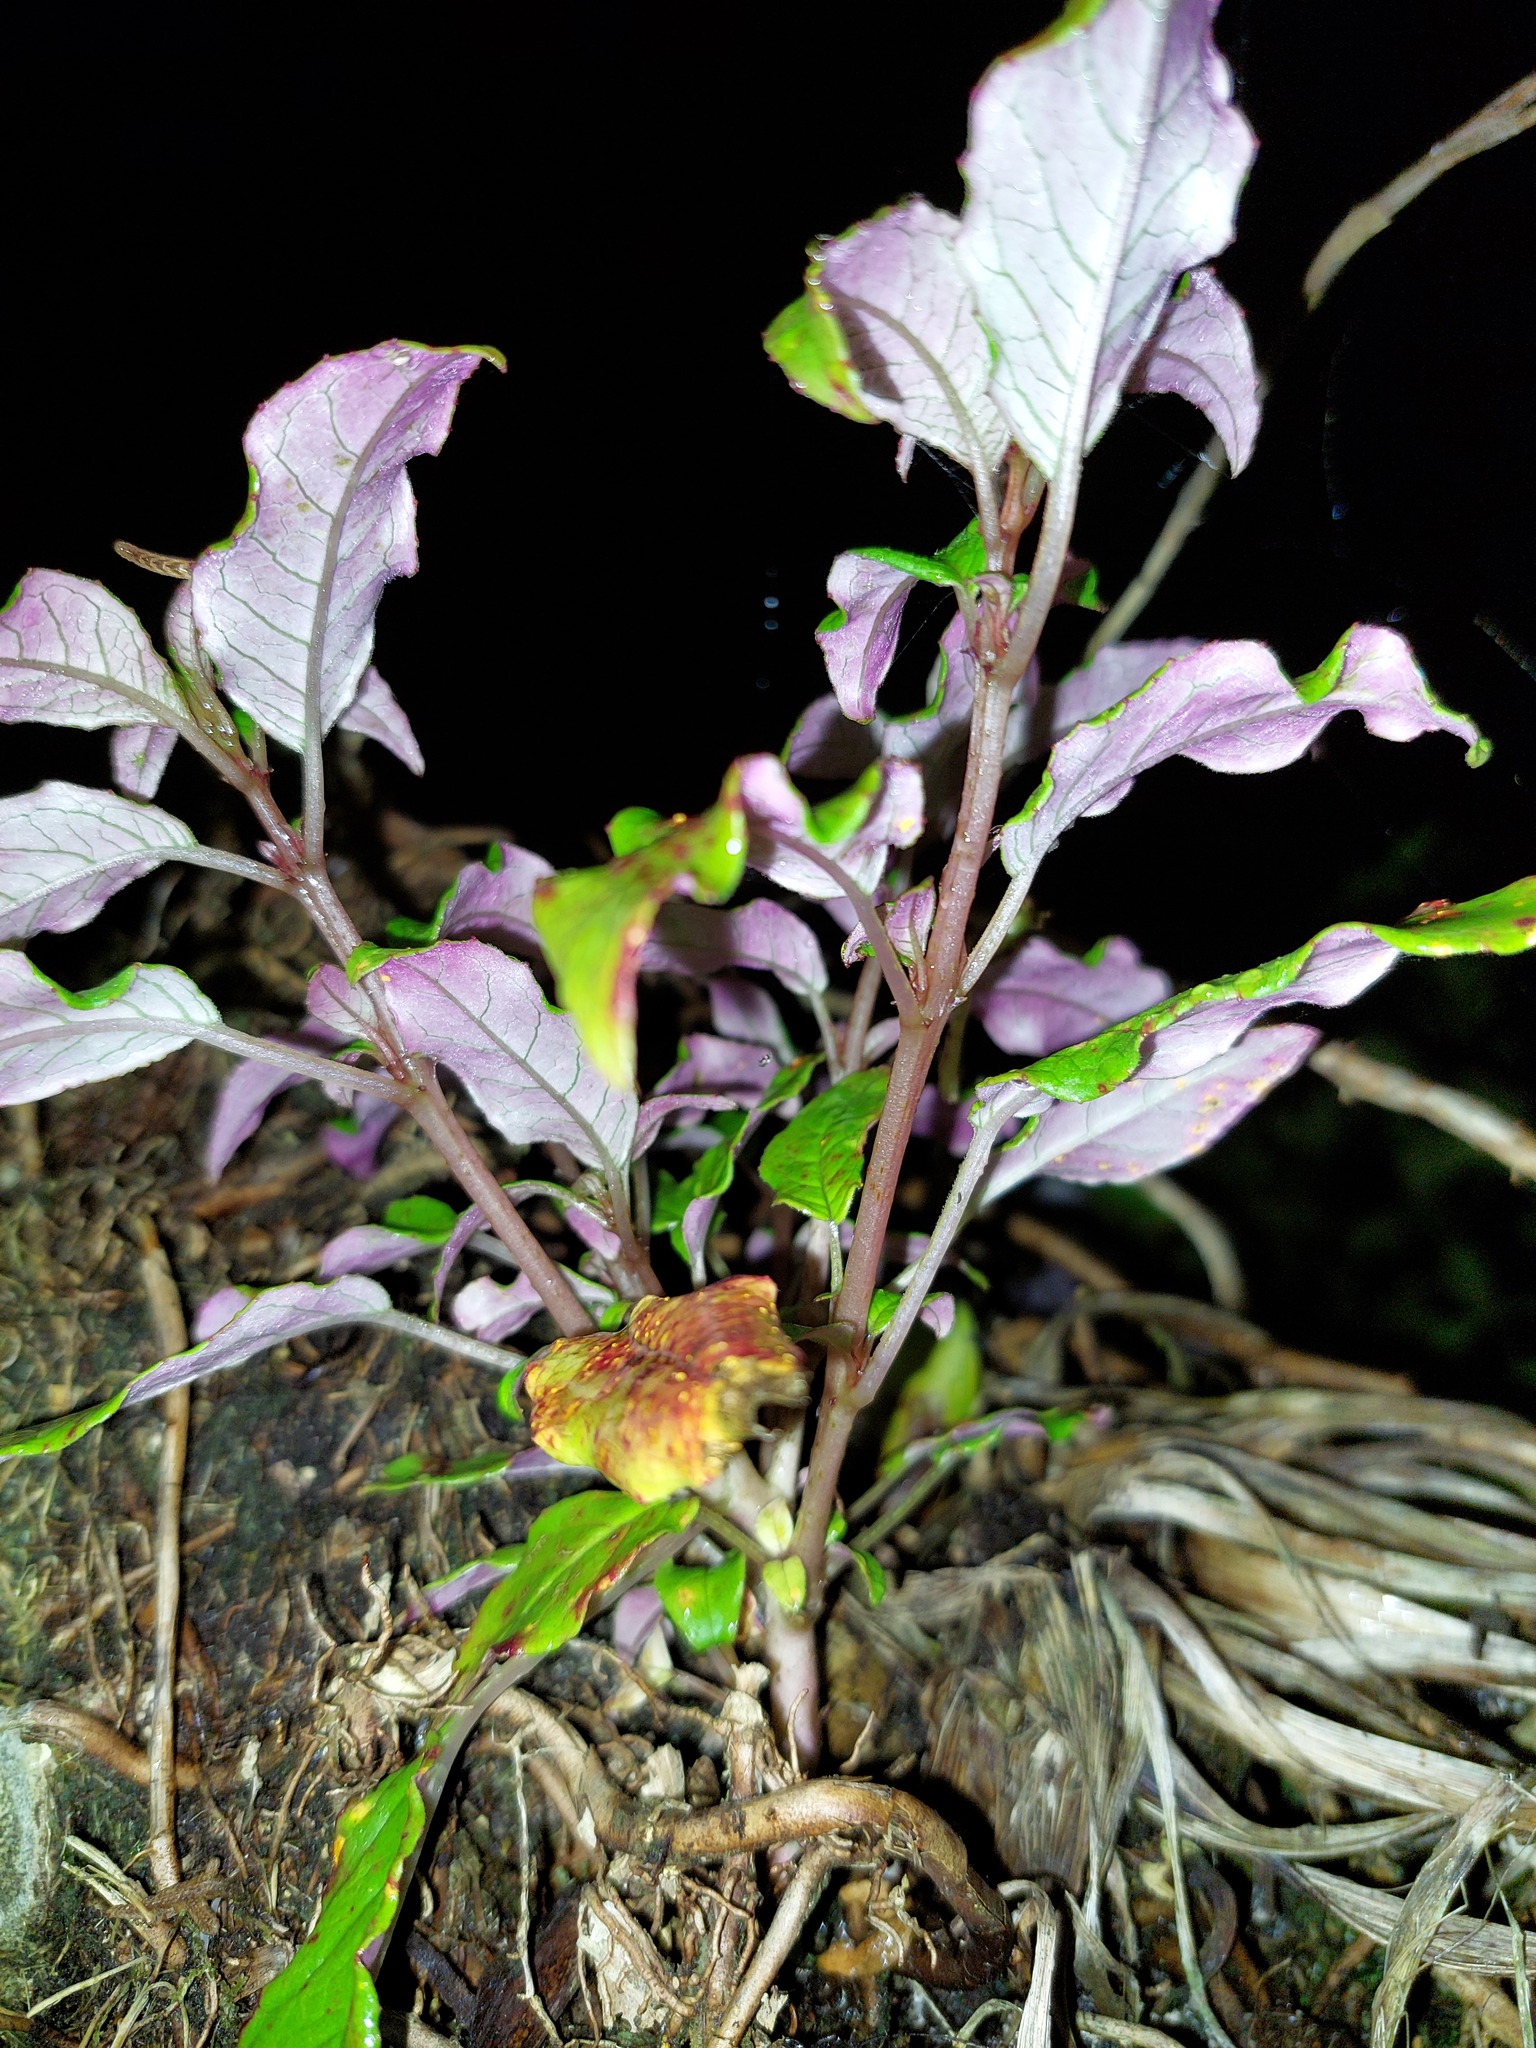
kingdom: Plantae
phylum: Tracheophyta
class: Magnoliopsida
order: Myrtales
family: Onagraceae
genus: Fuchsia
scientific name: Fuchsia excorticata
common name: Tree fuchsia
